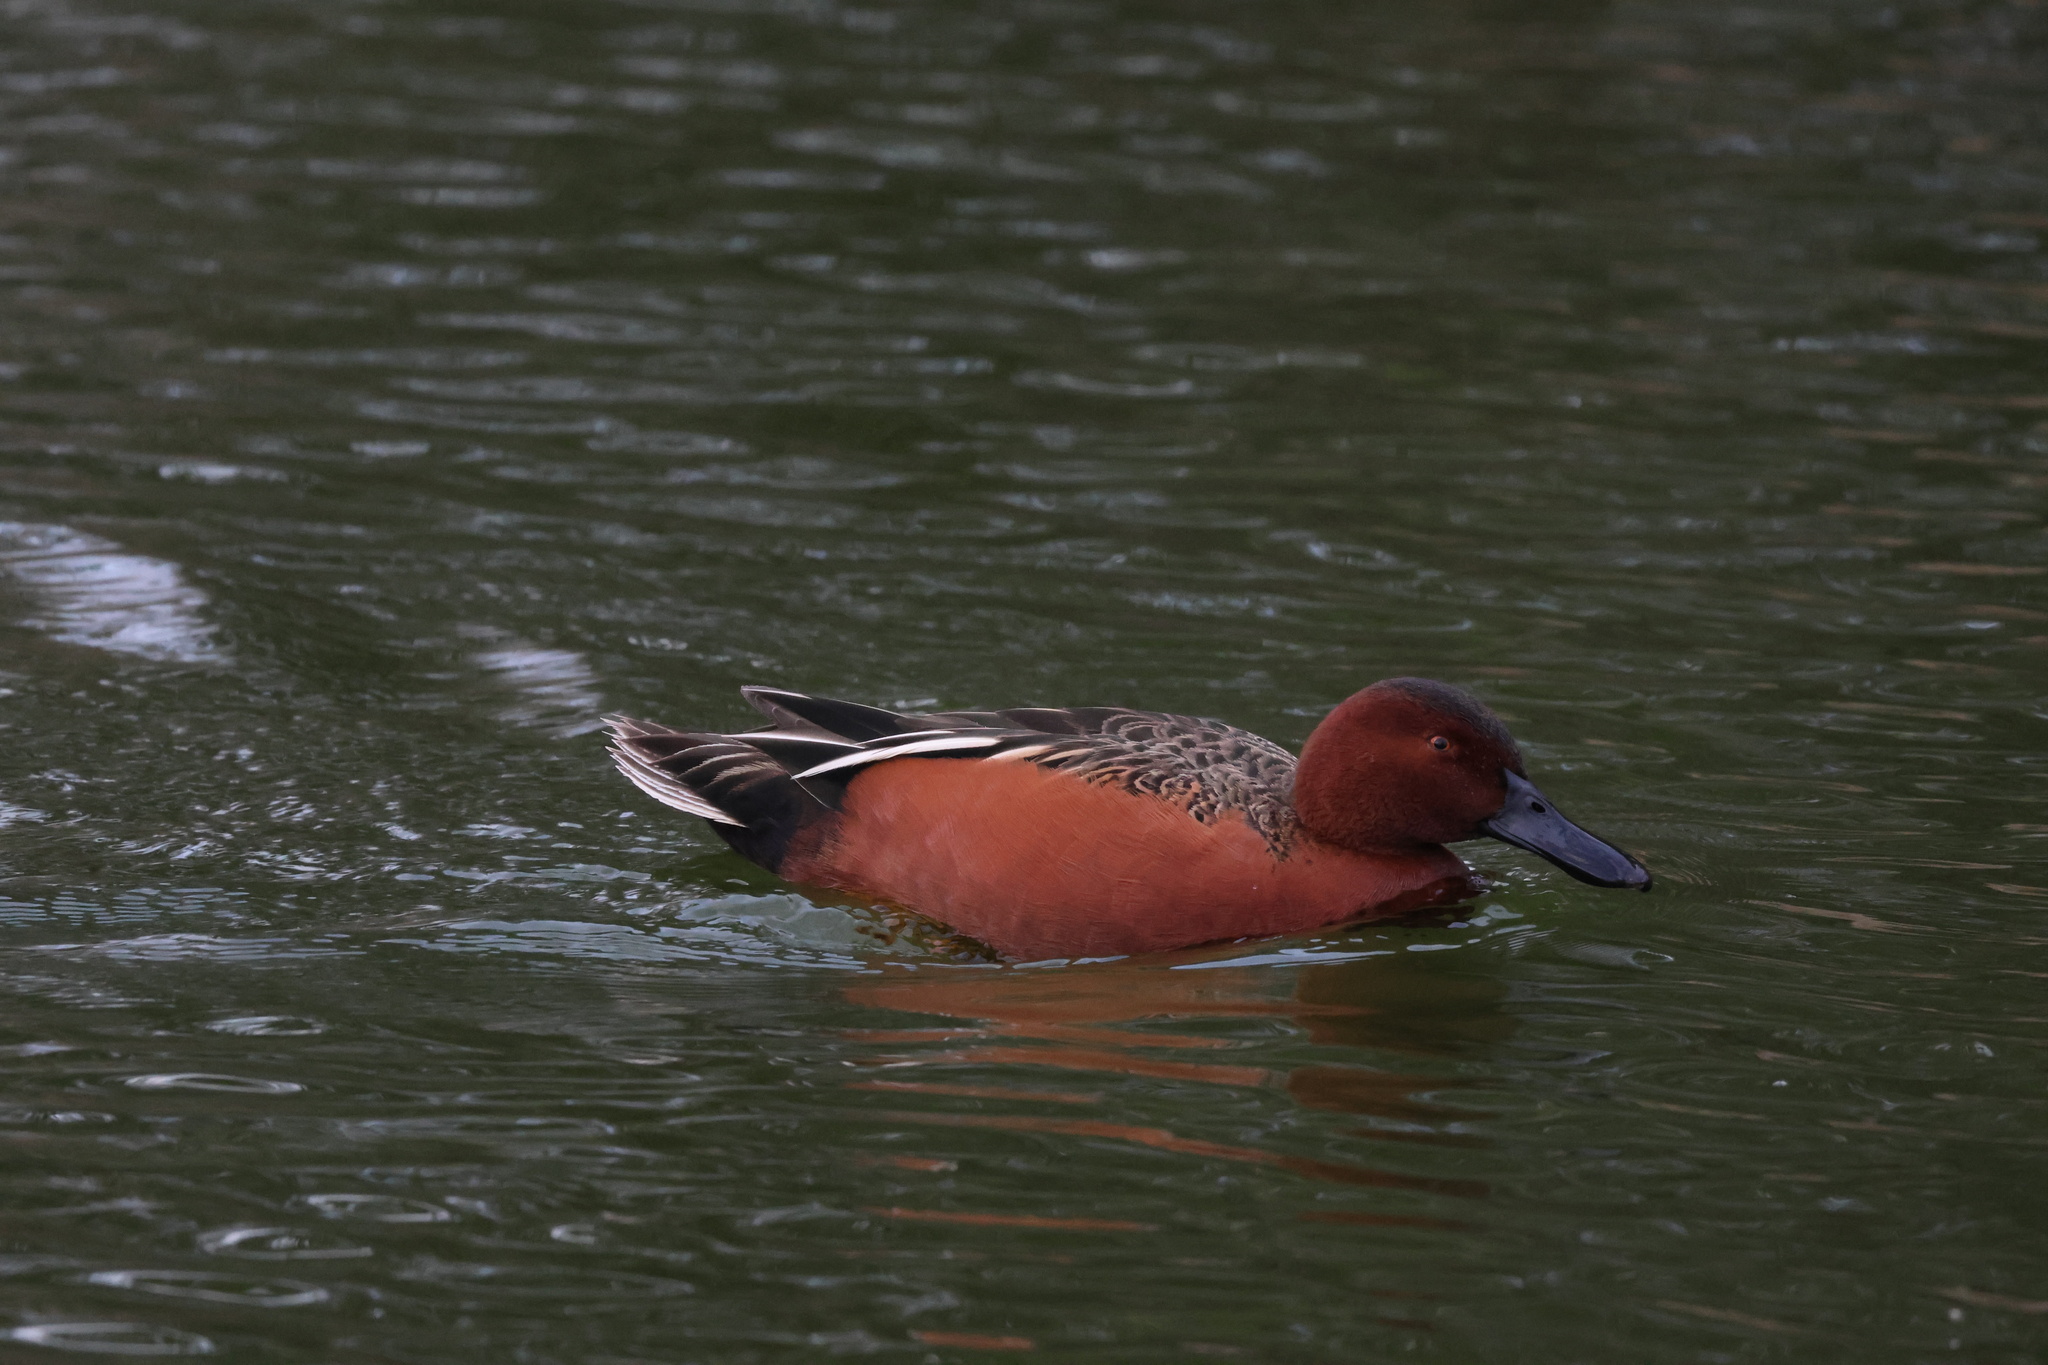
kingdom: Animalia
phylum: Chordata
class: Aves
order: Anseriformes
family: Anatidae
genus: Spatula
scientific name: Spatula cyanoptera
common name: Cinnamon teal
